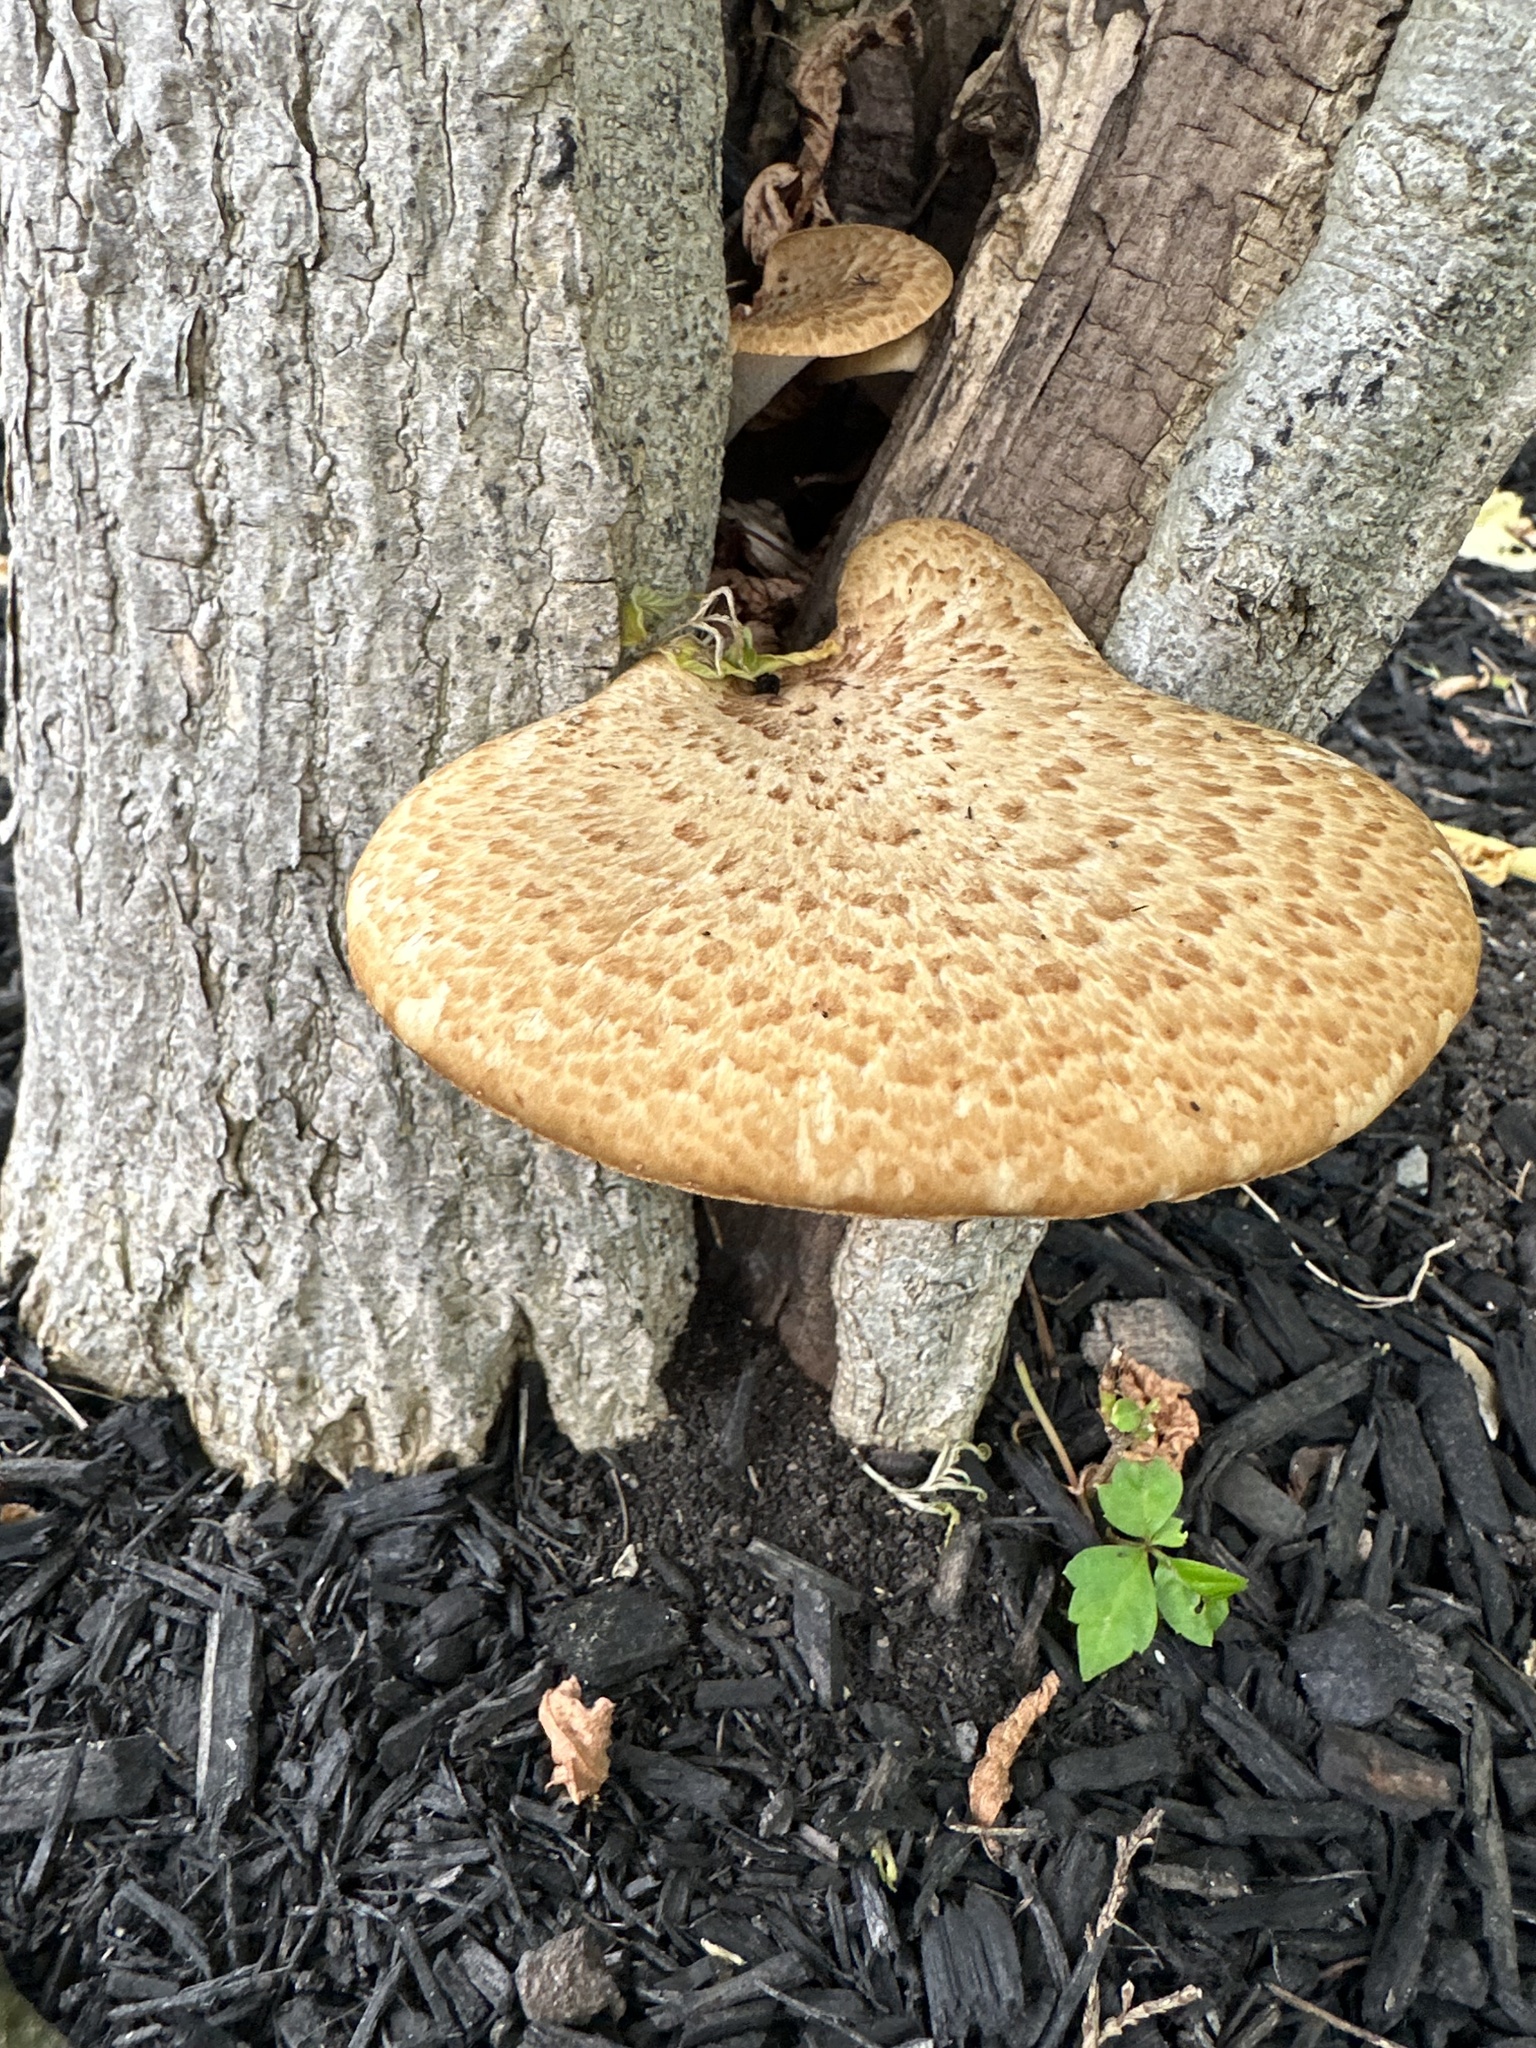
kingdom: Fungi
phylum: Basidiomycota
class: Agaricomycetes
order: Polyporales
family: Polyporaceae
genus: Cerioporus
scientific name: Cerioporus squamosus
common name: Dryad's saddle
